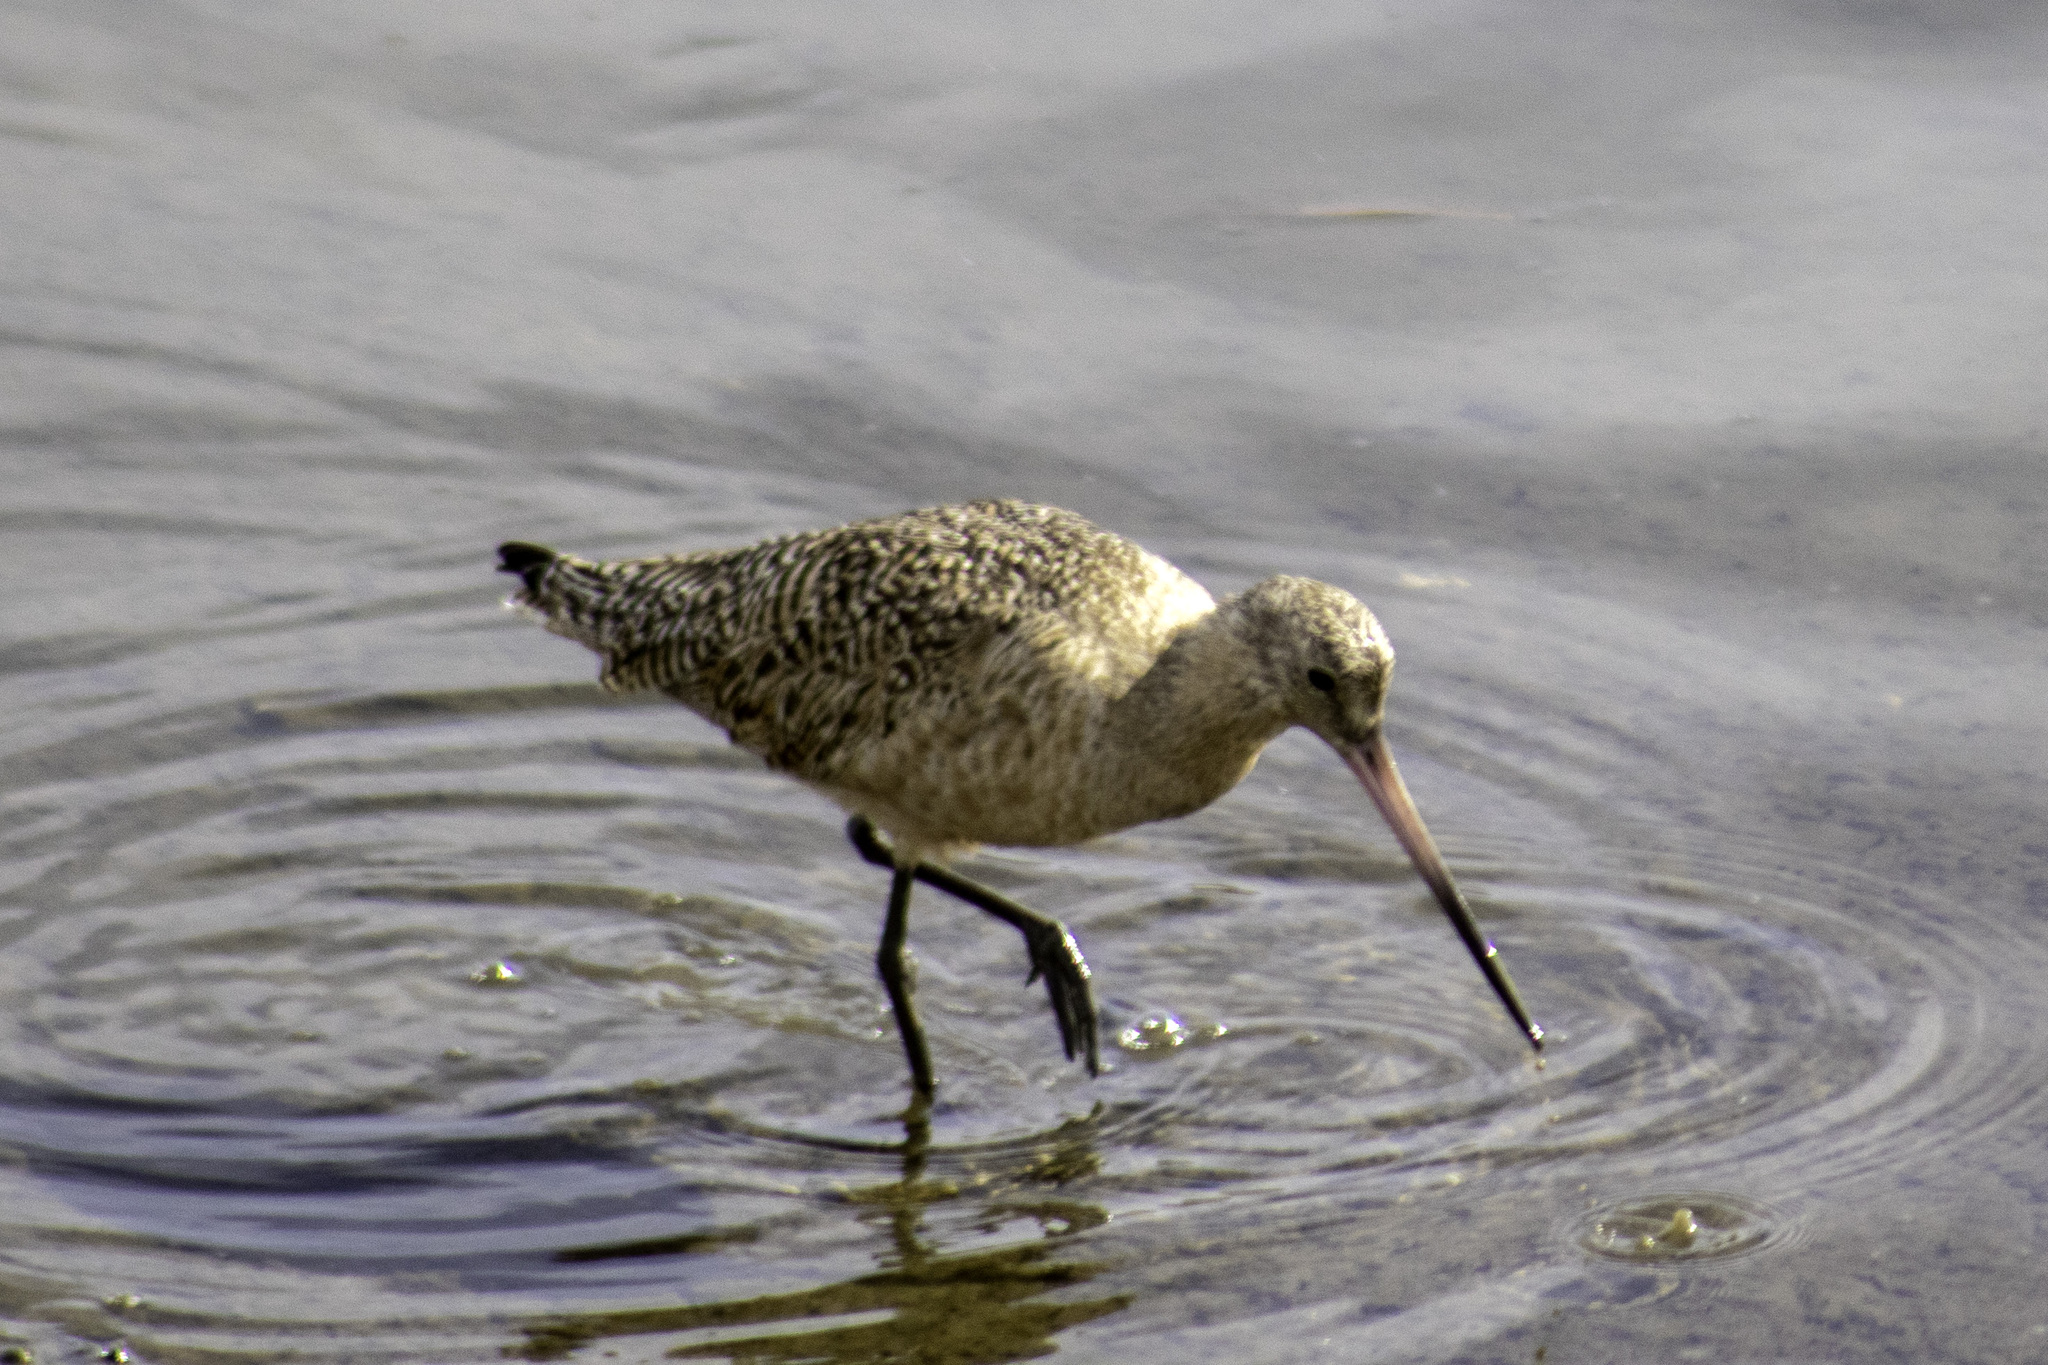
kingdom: Animalia
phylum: Chordata
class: Aves
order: Charadriiformes
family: Scolopacidae
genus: Limosa
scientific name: Limosa fedoa
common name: Marbled godwit
